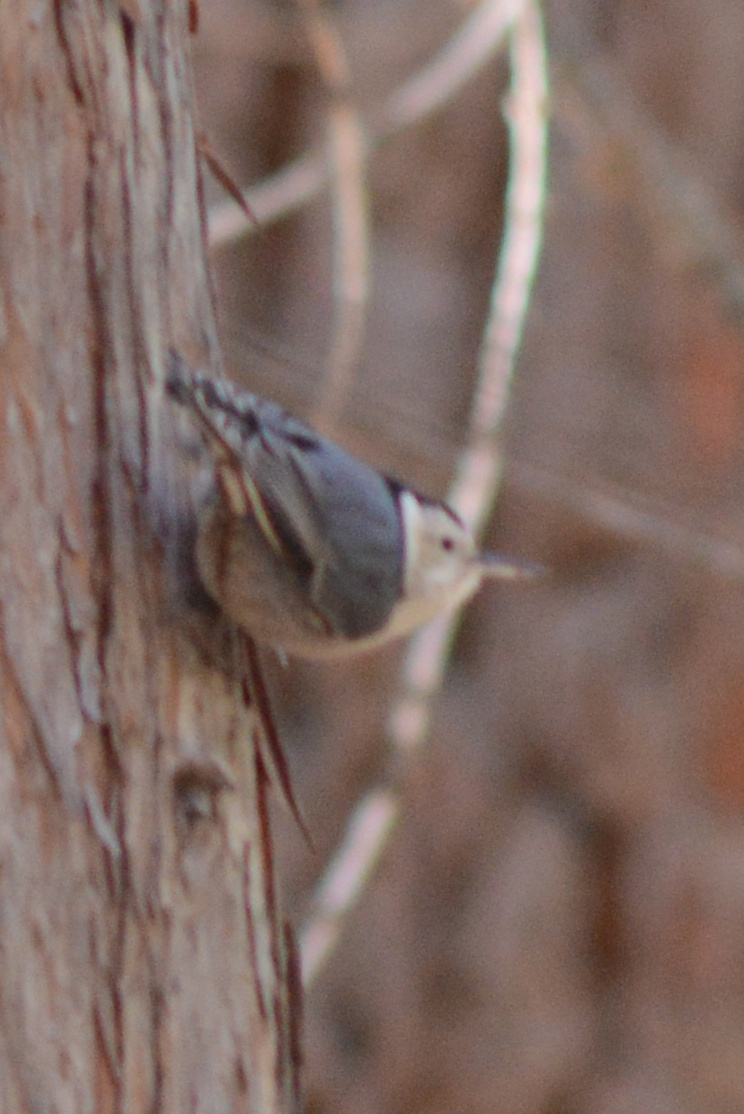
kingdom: Animalia
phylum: Chordata
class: Aves
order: Passeriformes
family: Sittidae
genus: Sitta
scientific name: Sitta carolinensis
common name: White-breasted nuthatch
